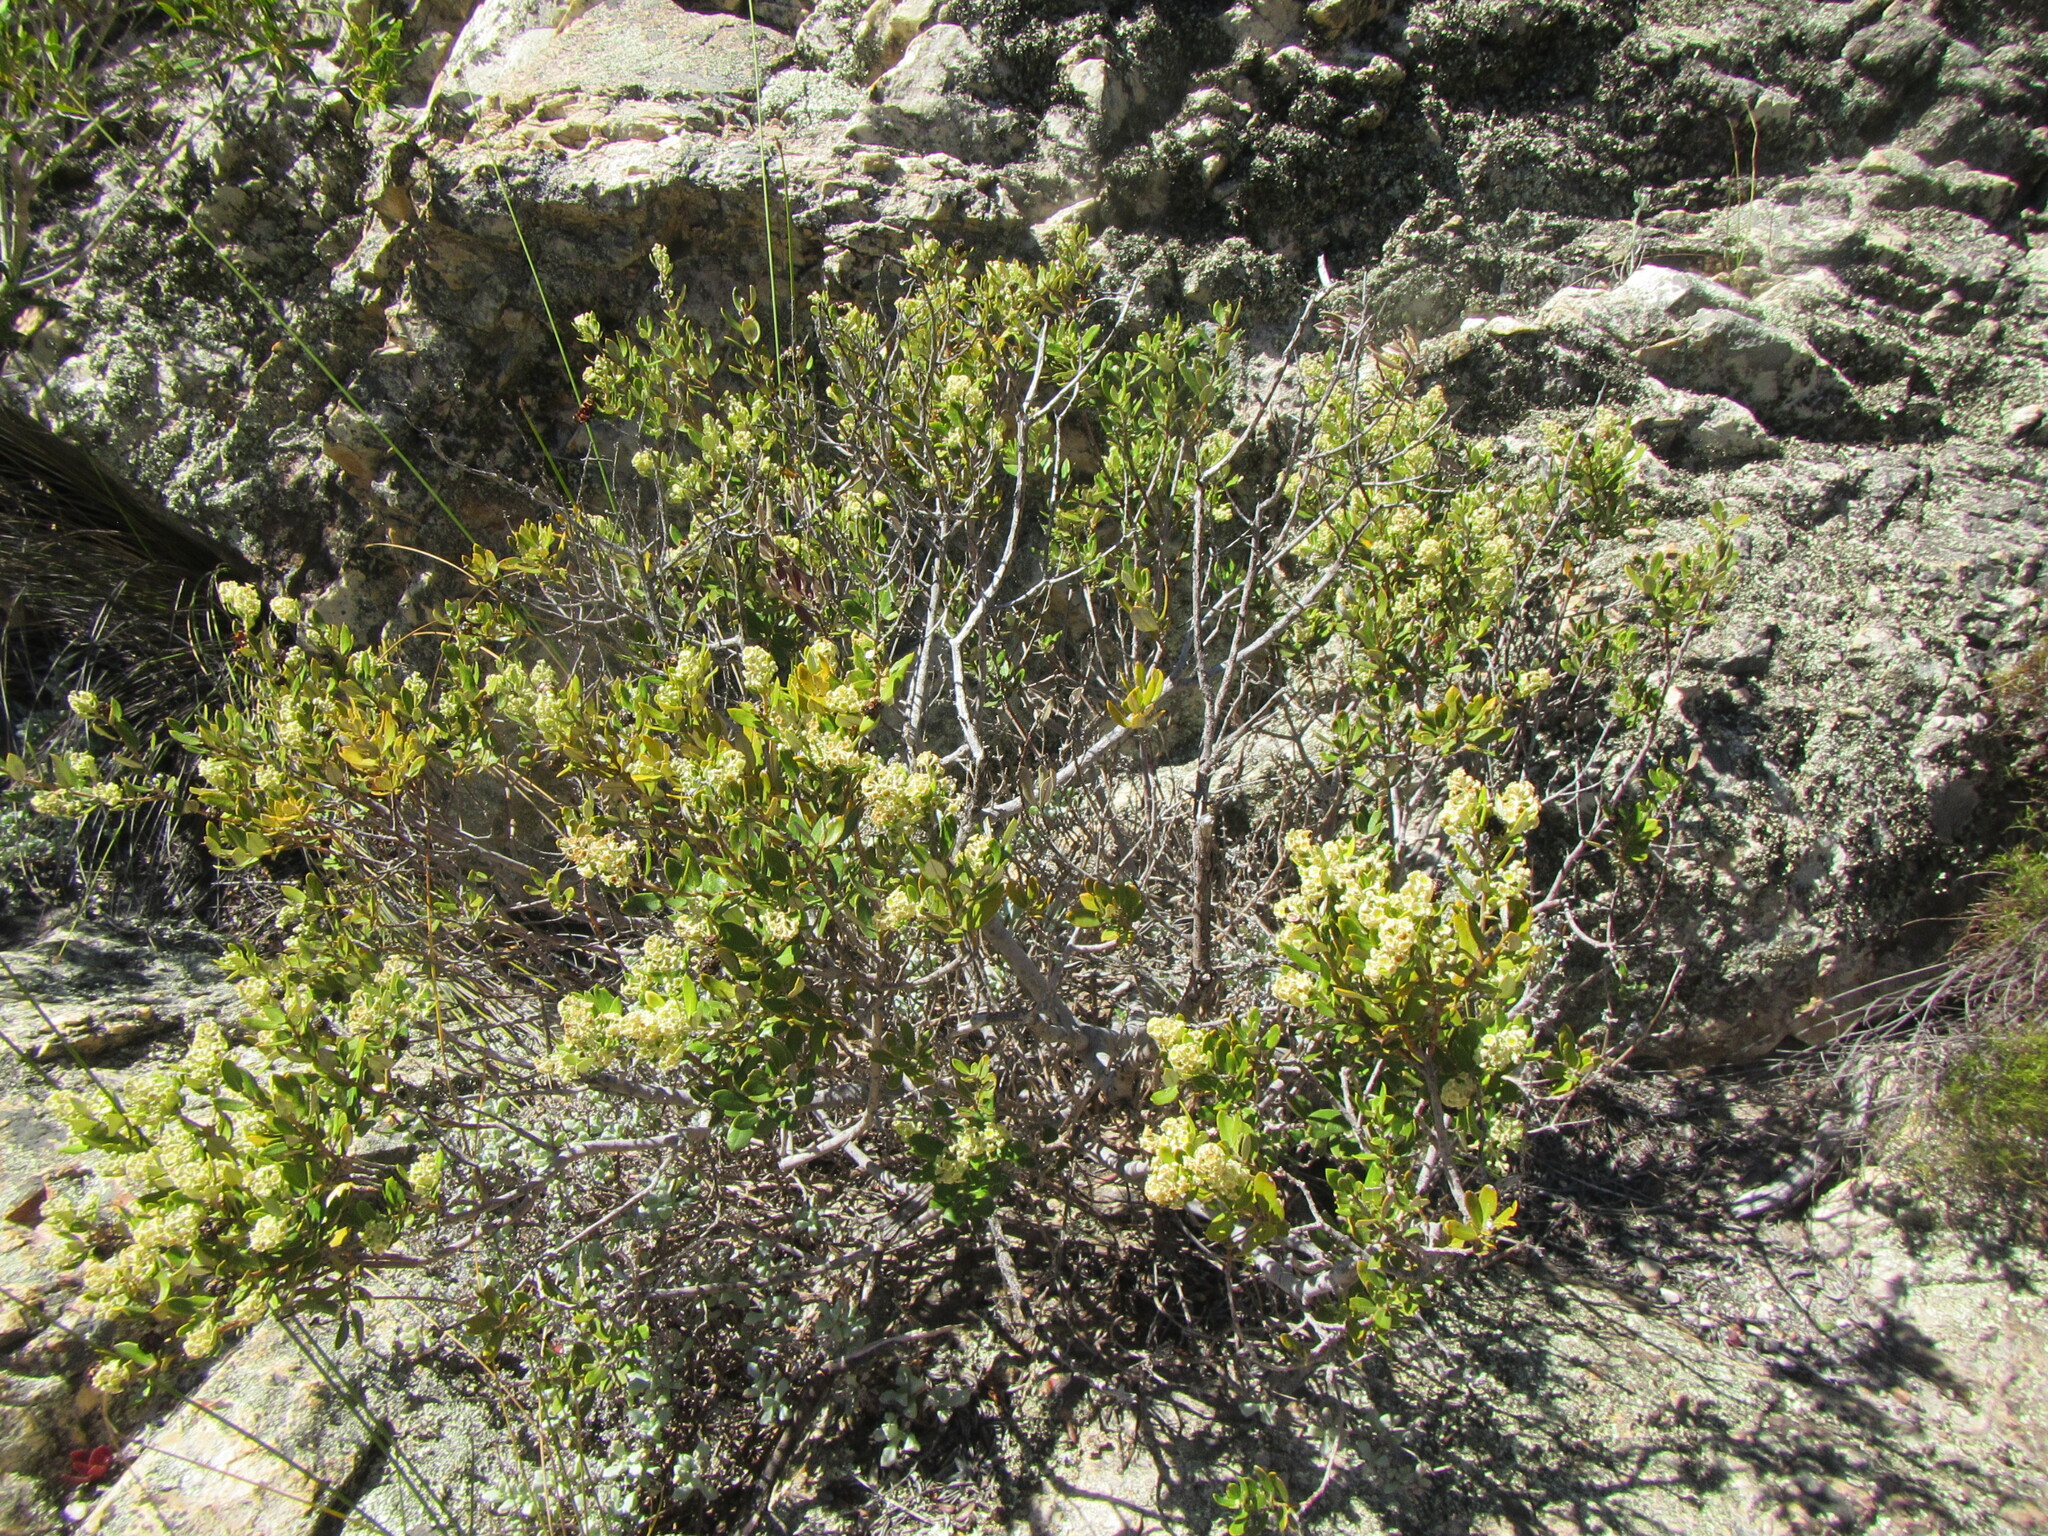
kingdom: Plantae
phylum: Tracheophyta
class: Magnoliopsida
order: Rosales
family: Rhamnaceae
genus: Phylica
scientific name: Phylica oleifolia
